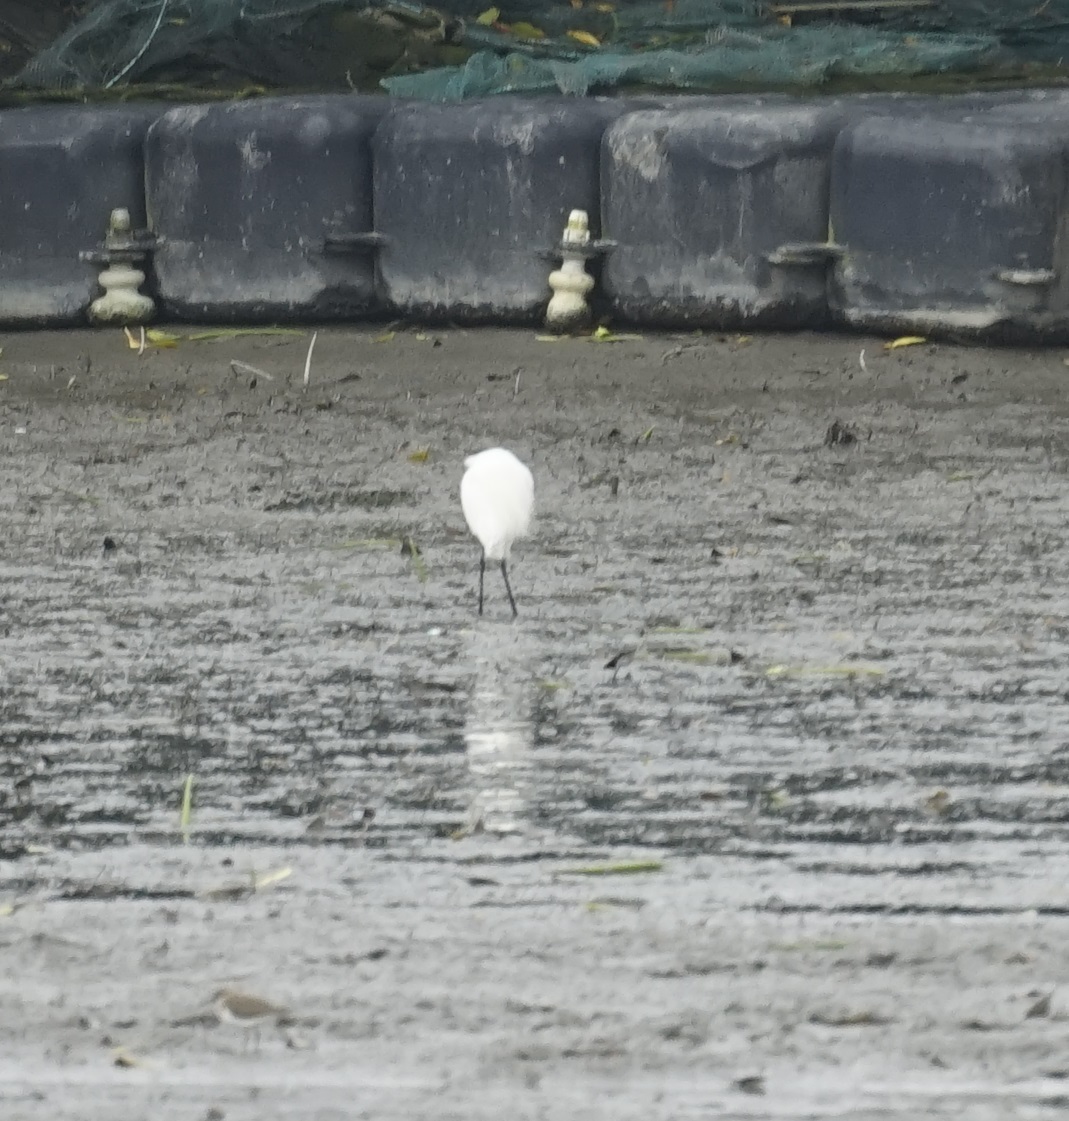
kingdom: Animalia
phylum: Chordata
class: Aves
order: Pelecaniformes
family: Ardeidae
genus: Egretta
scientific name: Egretta garzetta
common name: Little egret
